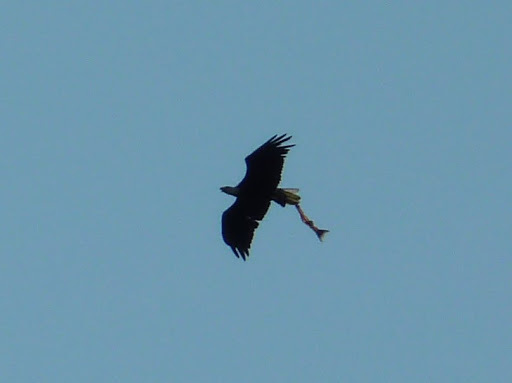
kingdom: Animalia
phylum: Chordata
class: Aves
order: Accipitriformes
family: Accipitridae
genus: Haliaeetus
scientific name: Haliaeetus leucocephalus
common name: Bald eagle
